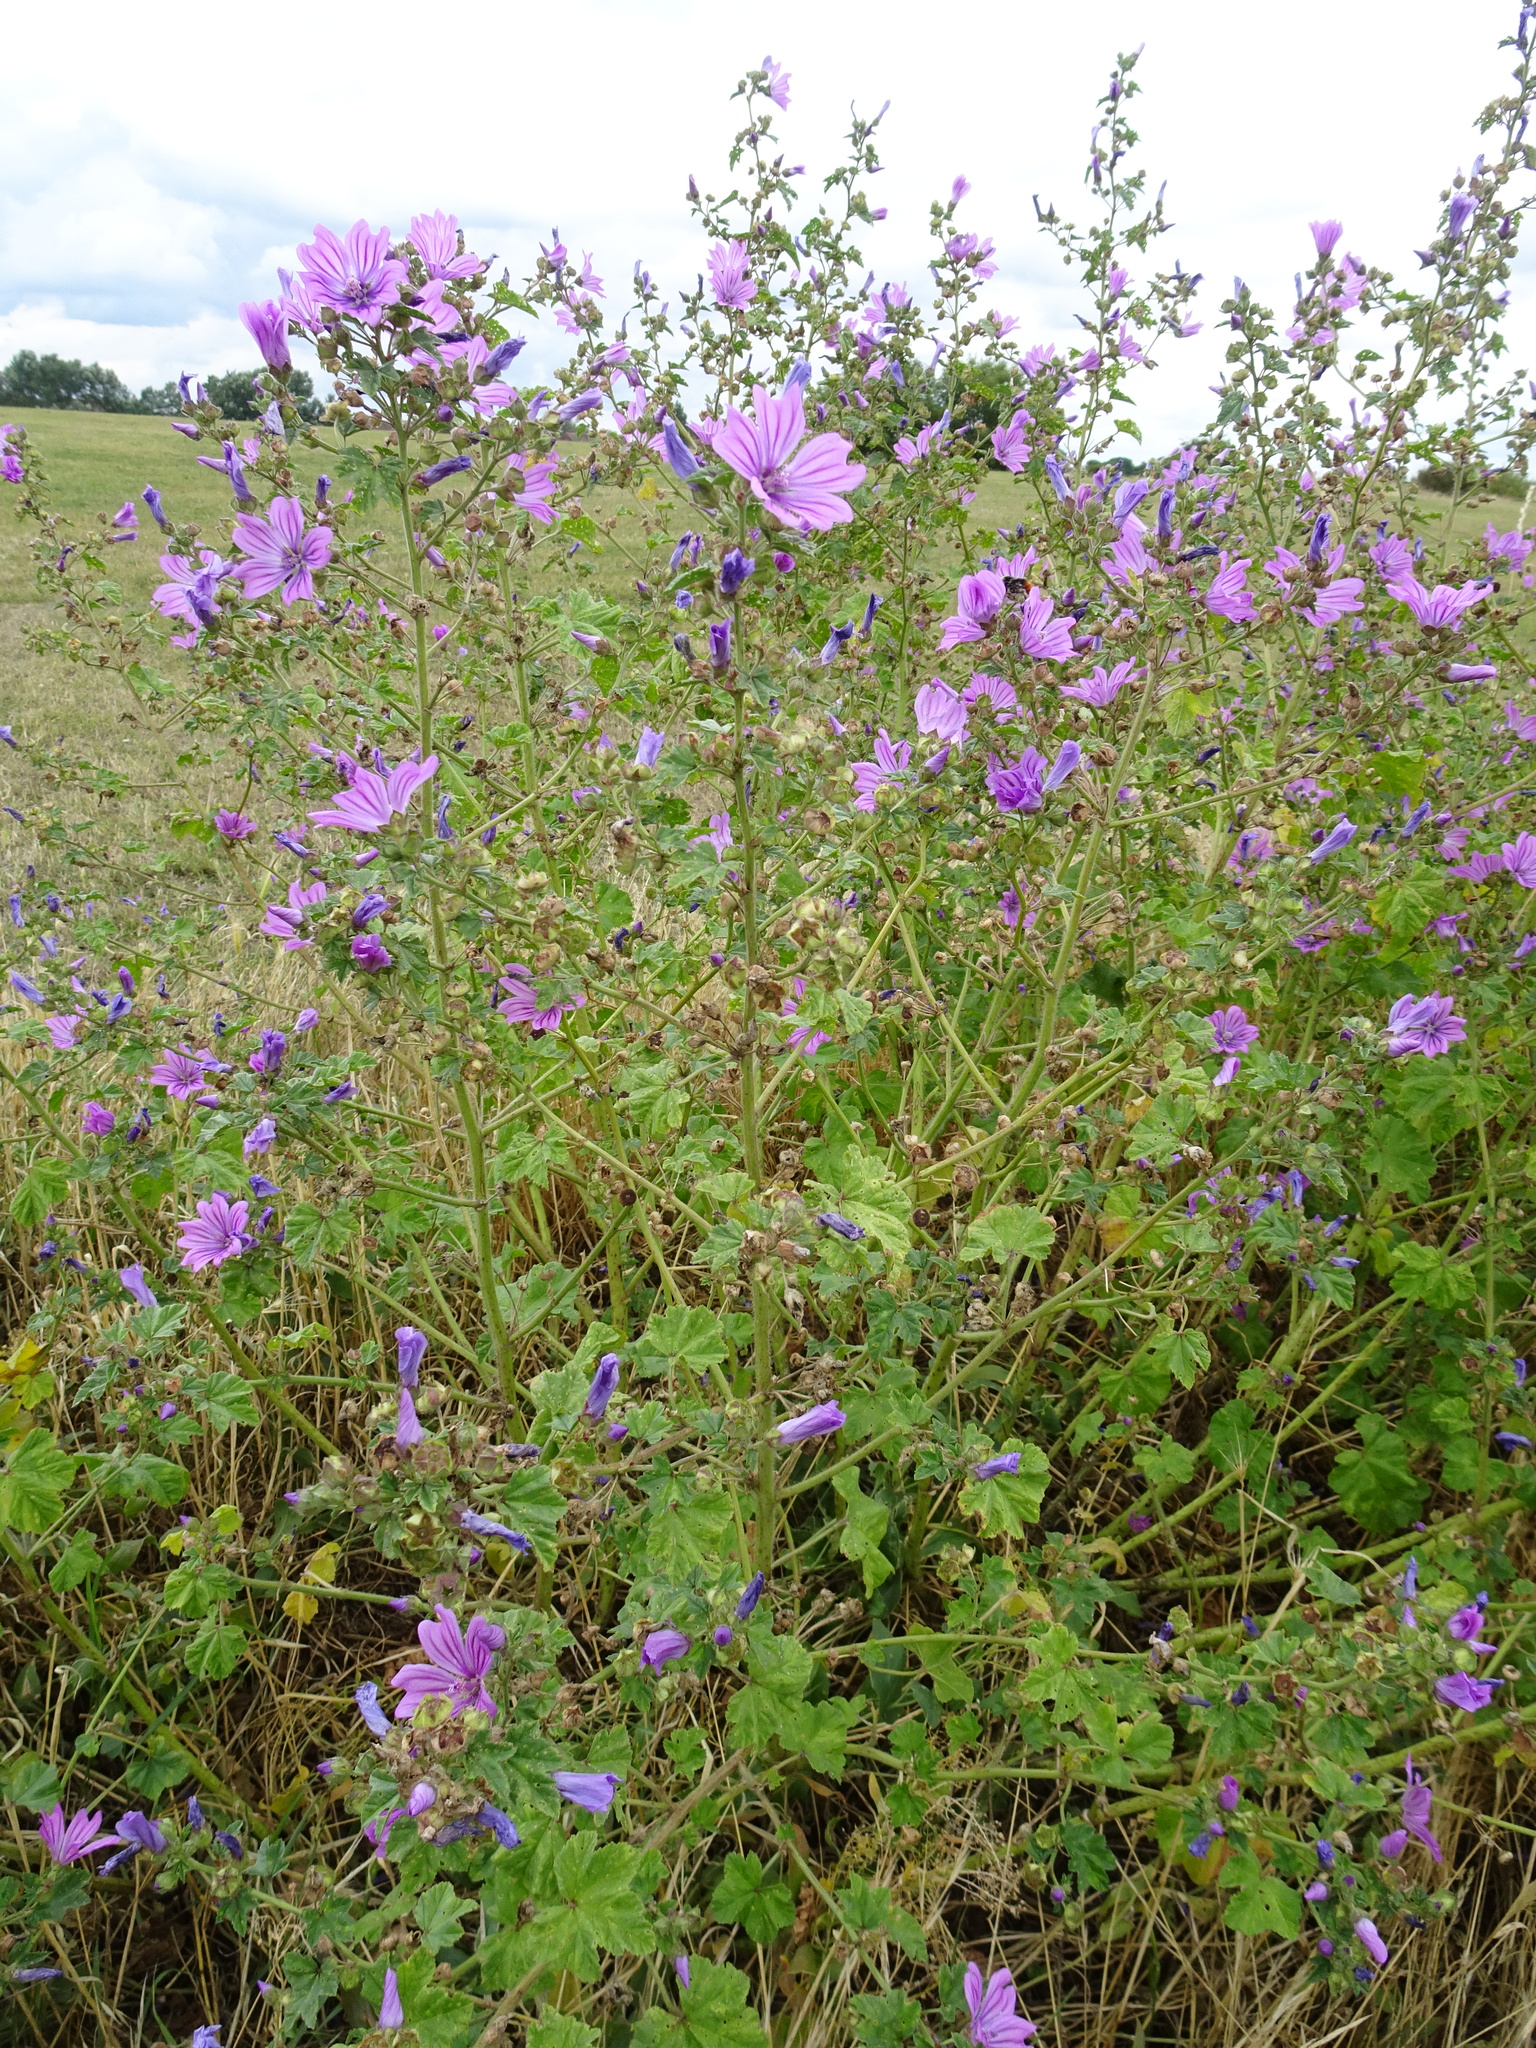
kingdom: Plantae
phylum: Tracheophyta
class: Magnoliopsida
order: Malvales
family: Malvaceae
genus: Malva
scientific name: Malva sylvestris
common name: Common mallow
